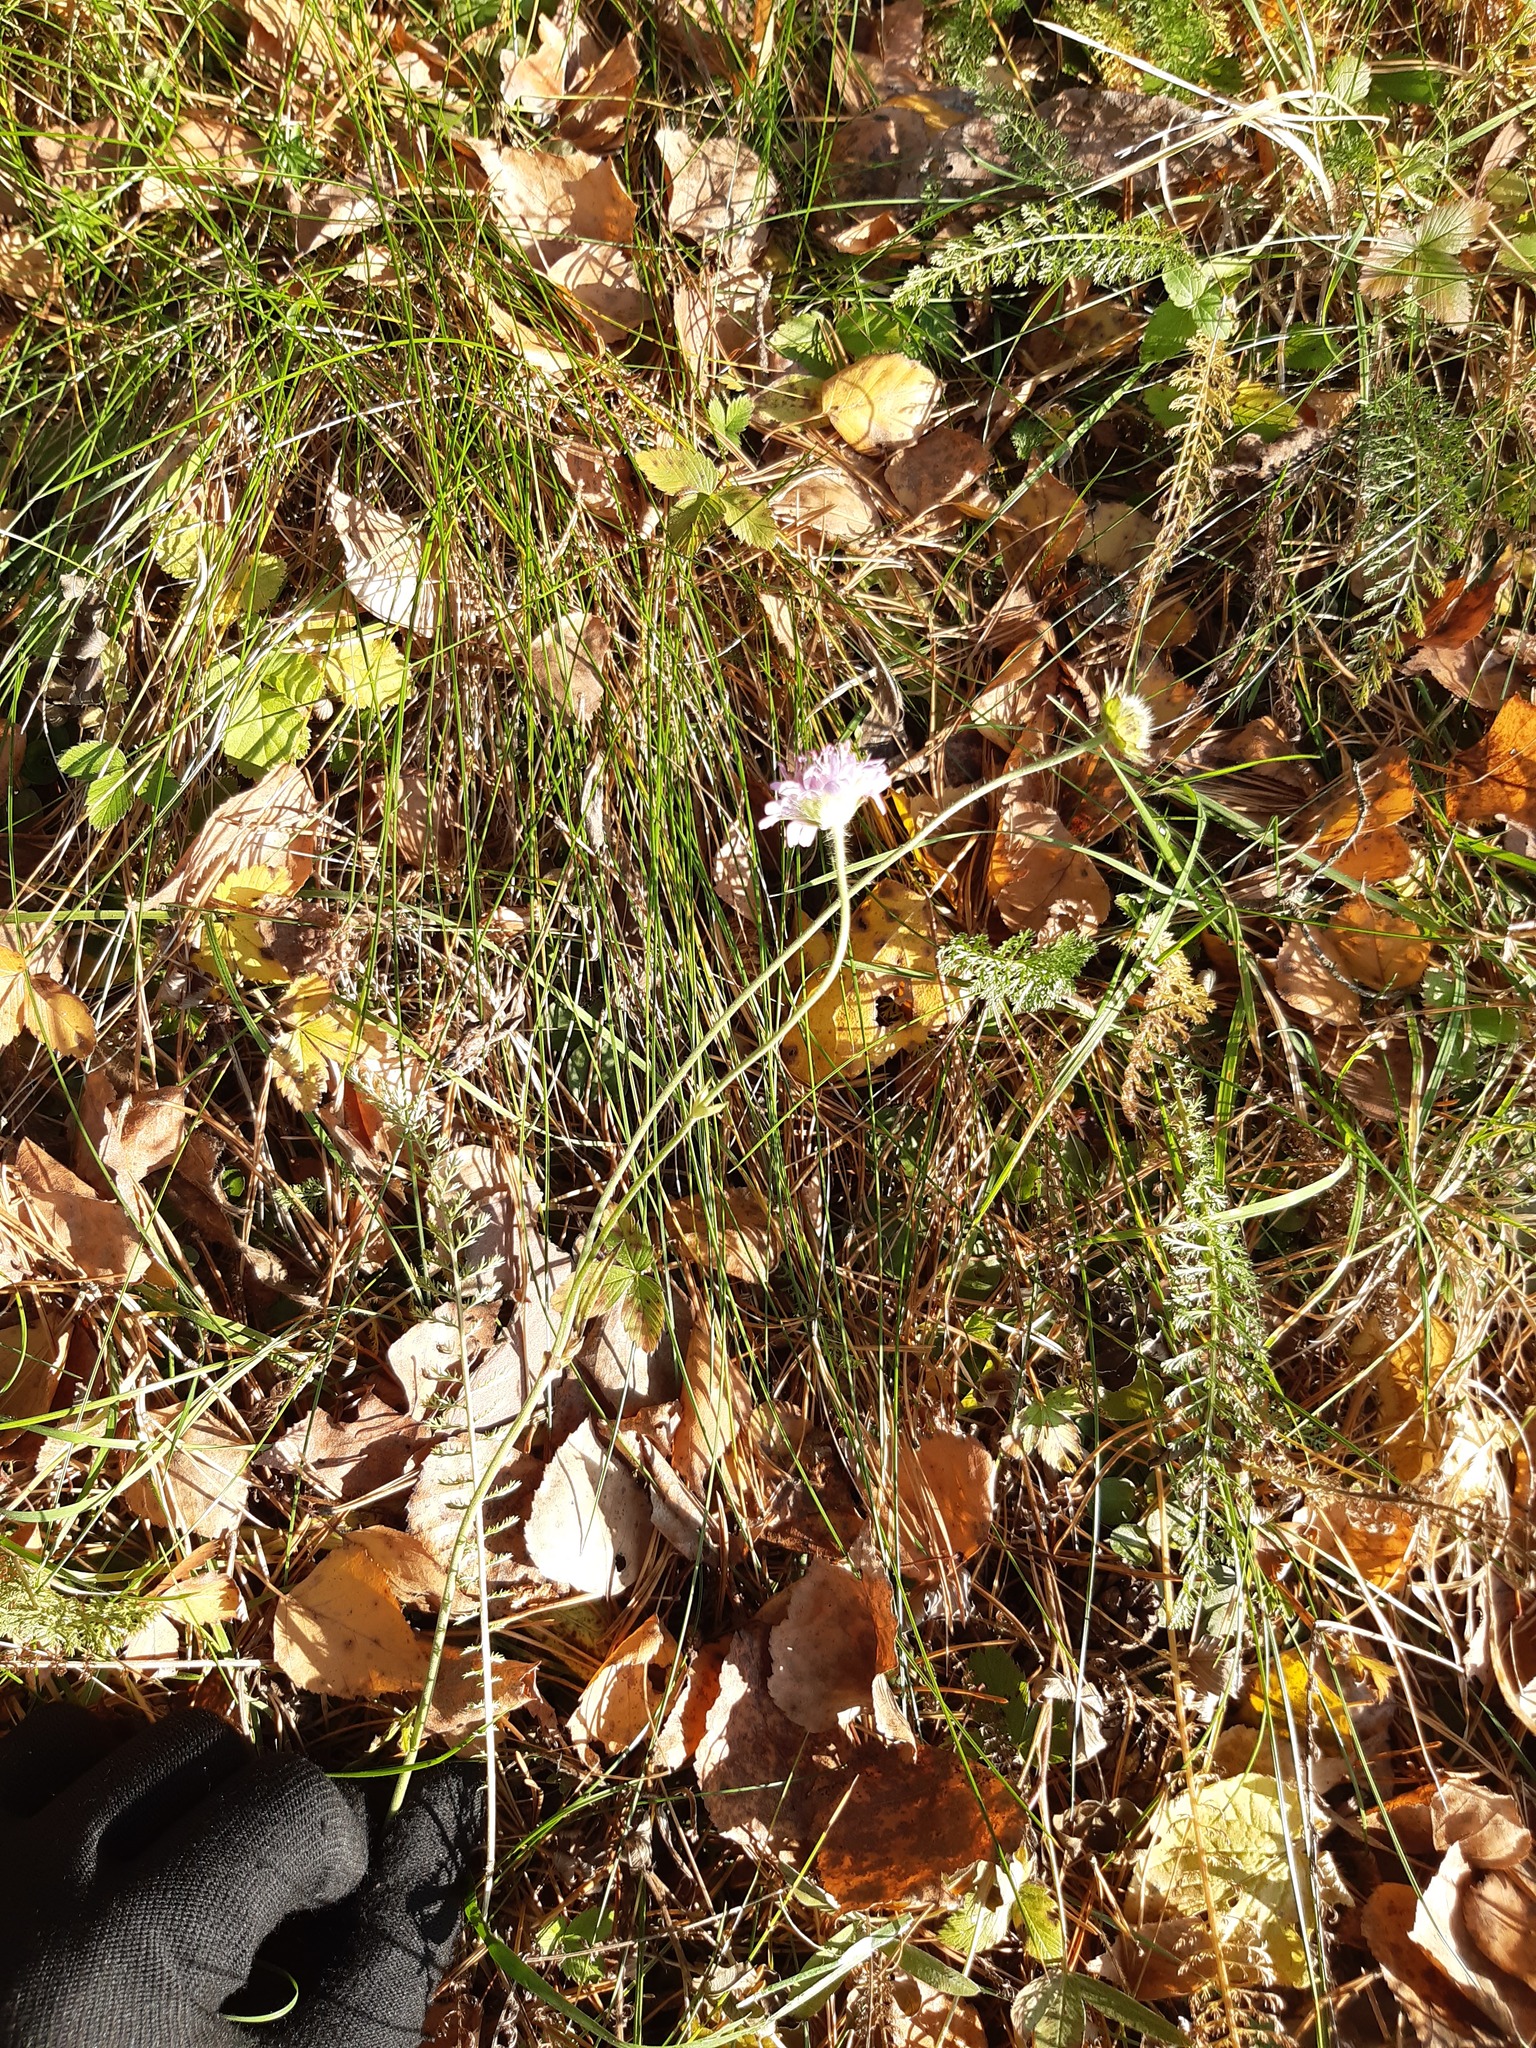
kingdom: Plantae
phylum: Tracheophyta
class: Magnoliopsida
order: Dipsacales
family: Caprifoliaceae
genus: Knautia
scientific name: Knautia arvensis
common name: Field scabiosa
